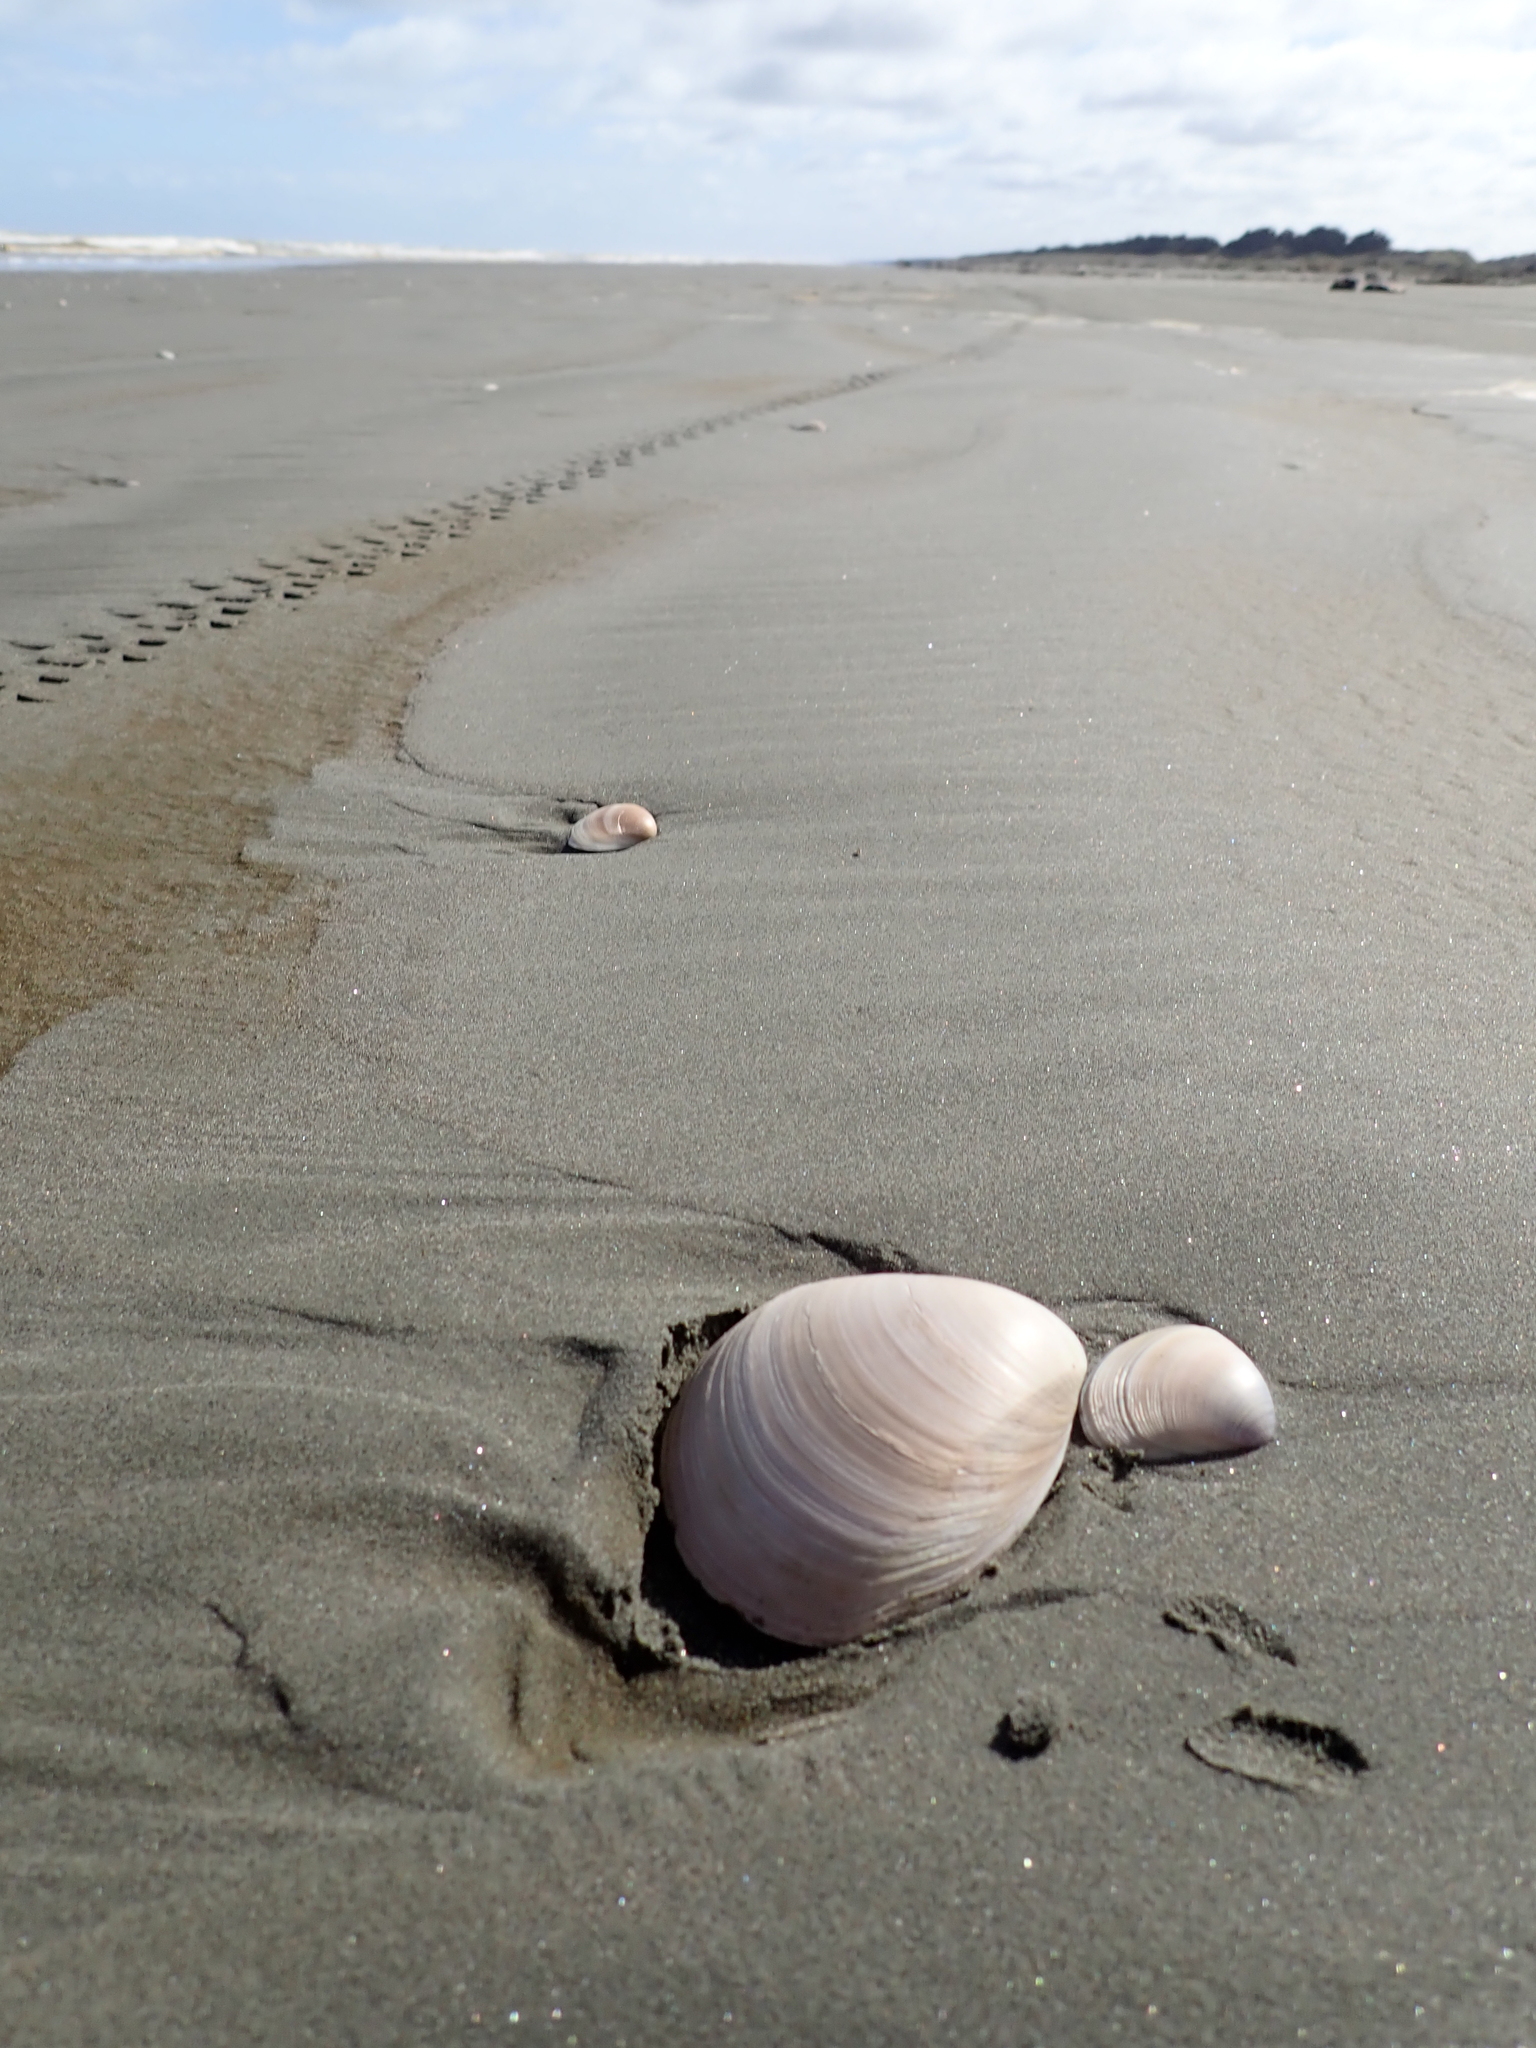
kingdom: Animalia
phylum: Mollusca
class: Bivalvia
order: Venerida
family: Mactridae
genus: Spisula
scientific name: Spisula murchisoni
